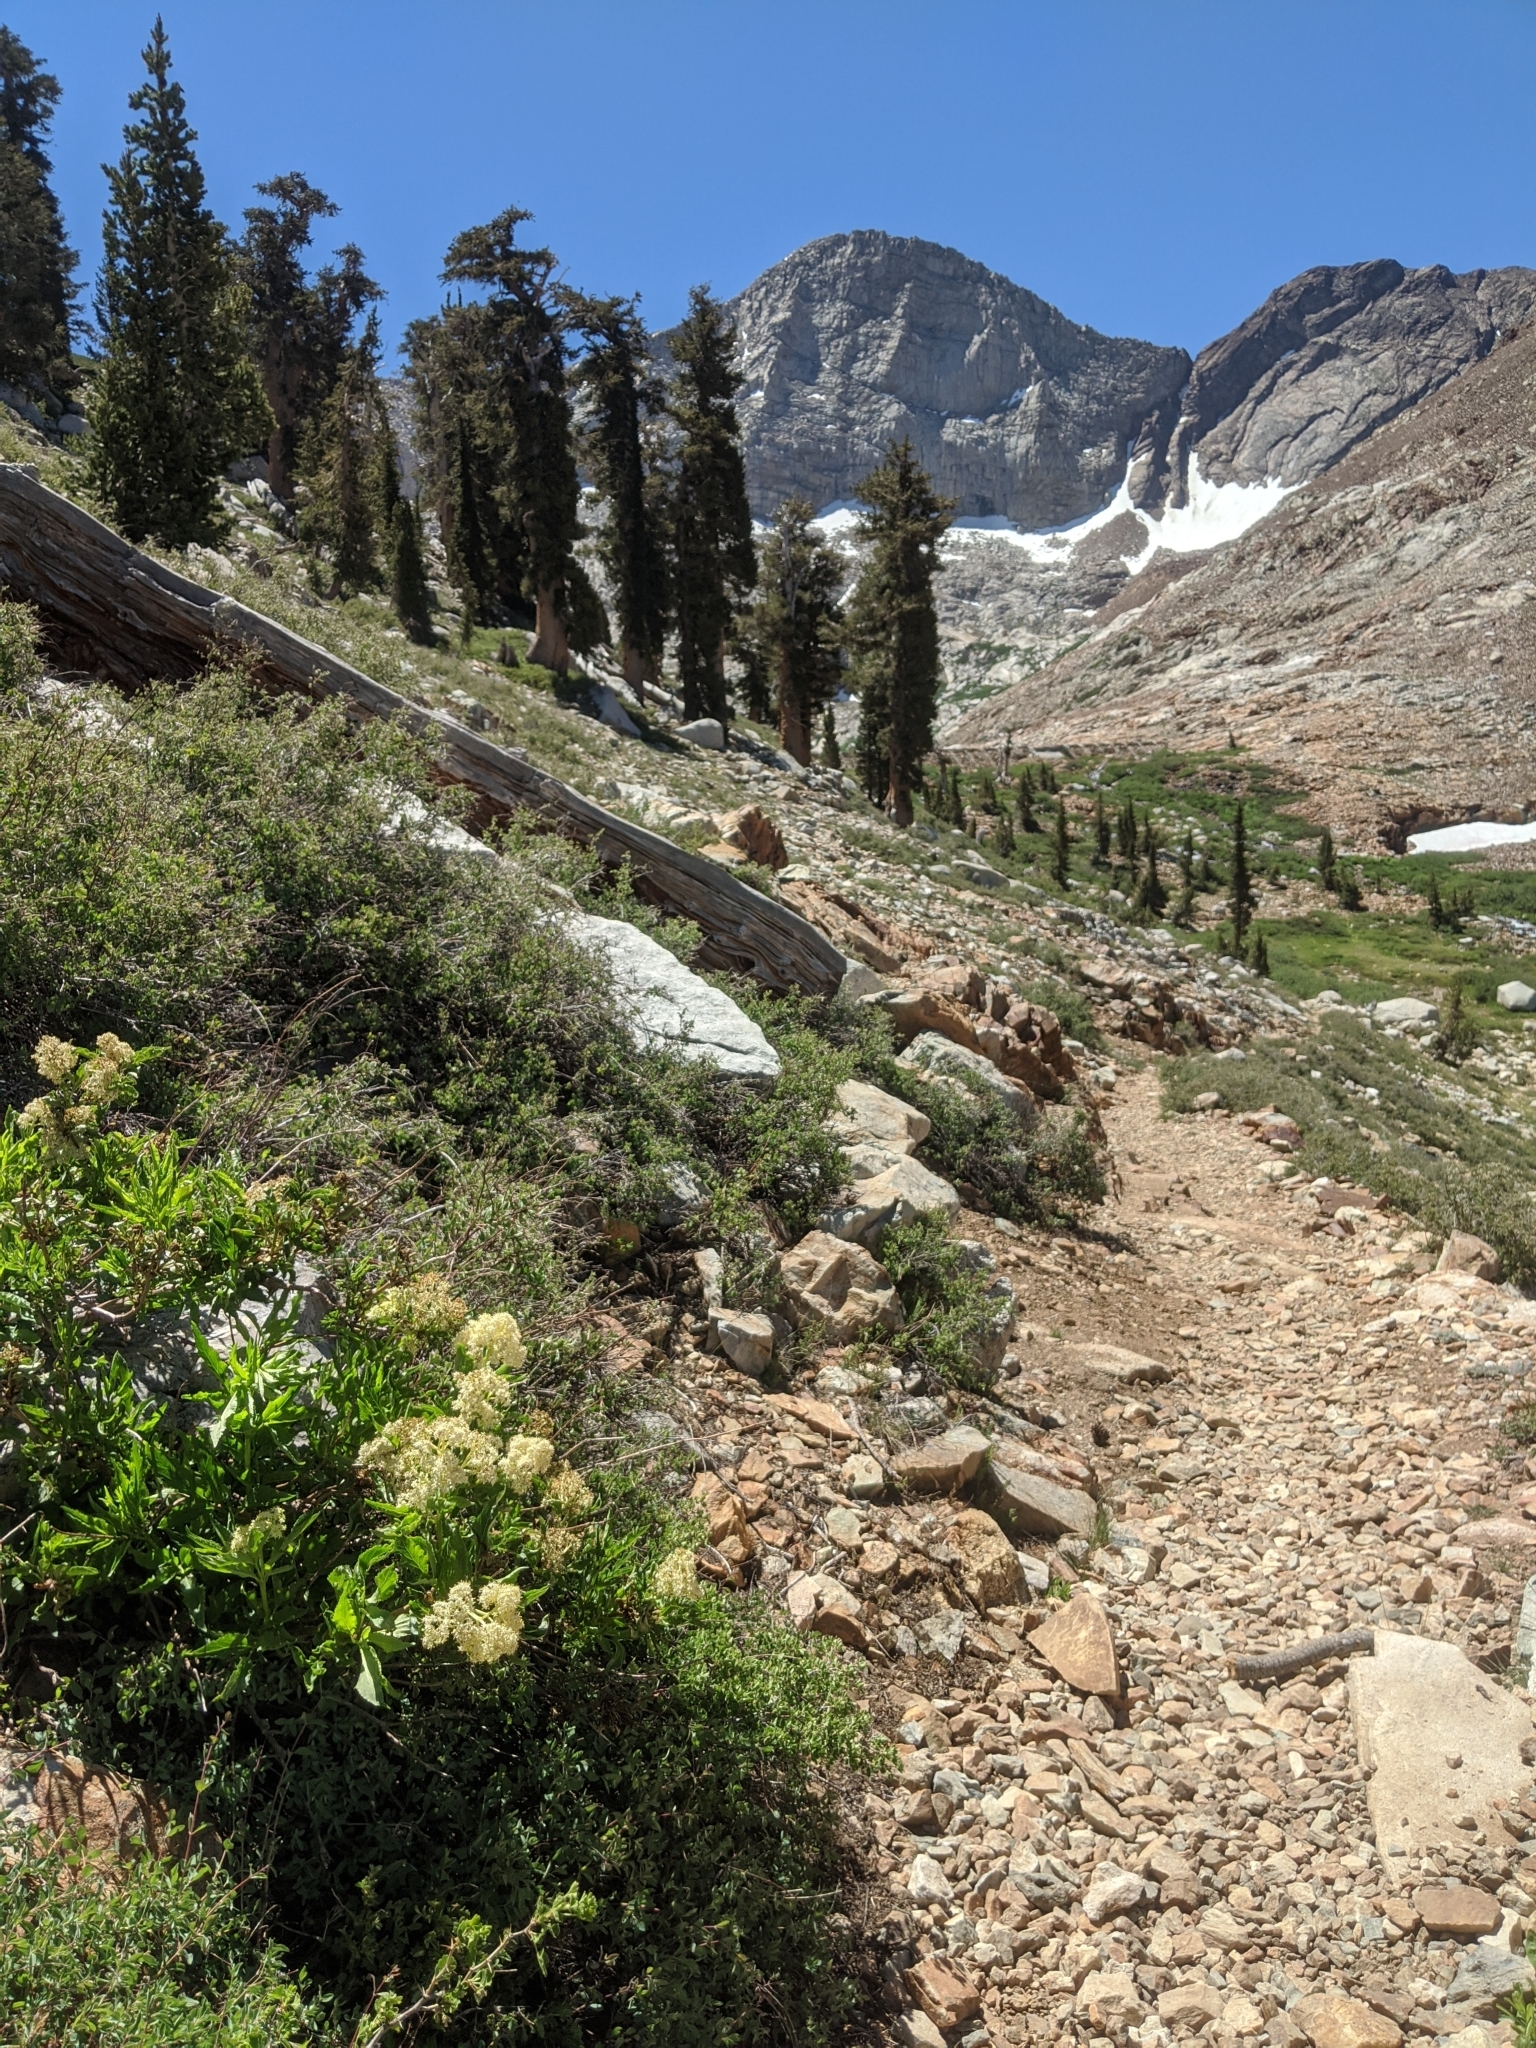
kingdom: Plantae
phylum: Tracheophyta
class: Magnoliopsida
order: Dipsacales
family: Viburnaceae
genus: Sambucus
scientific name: Sambucus racemosa
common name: Red-berried elder
